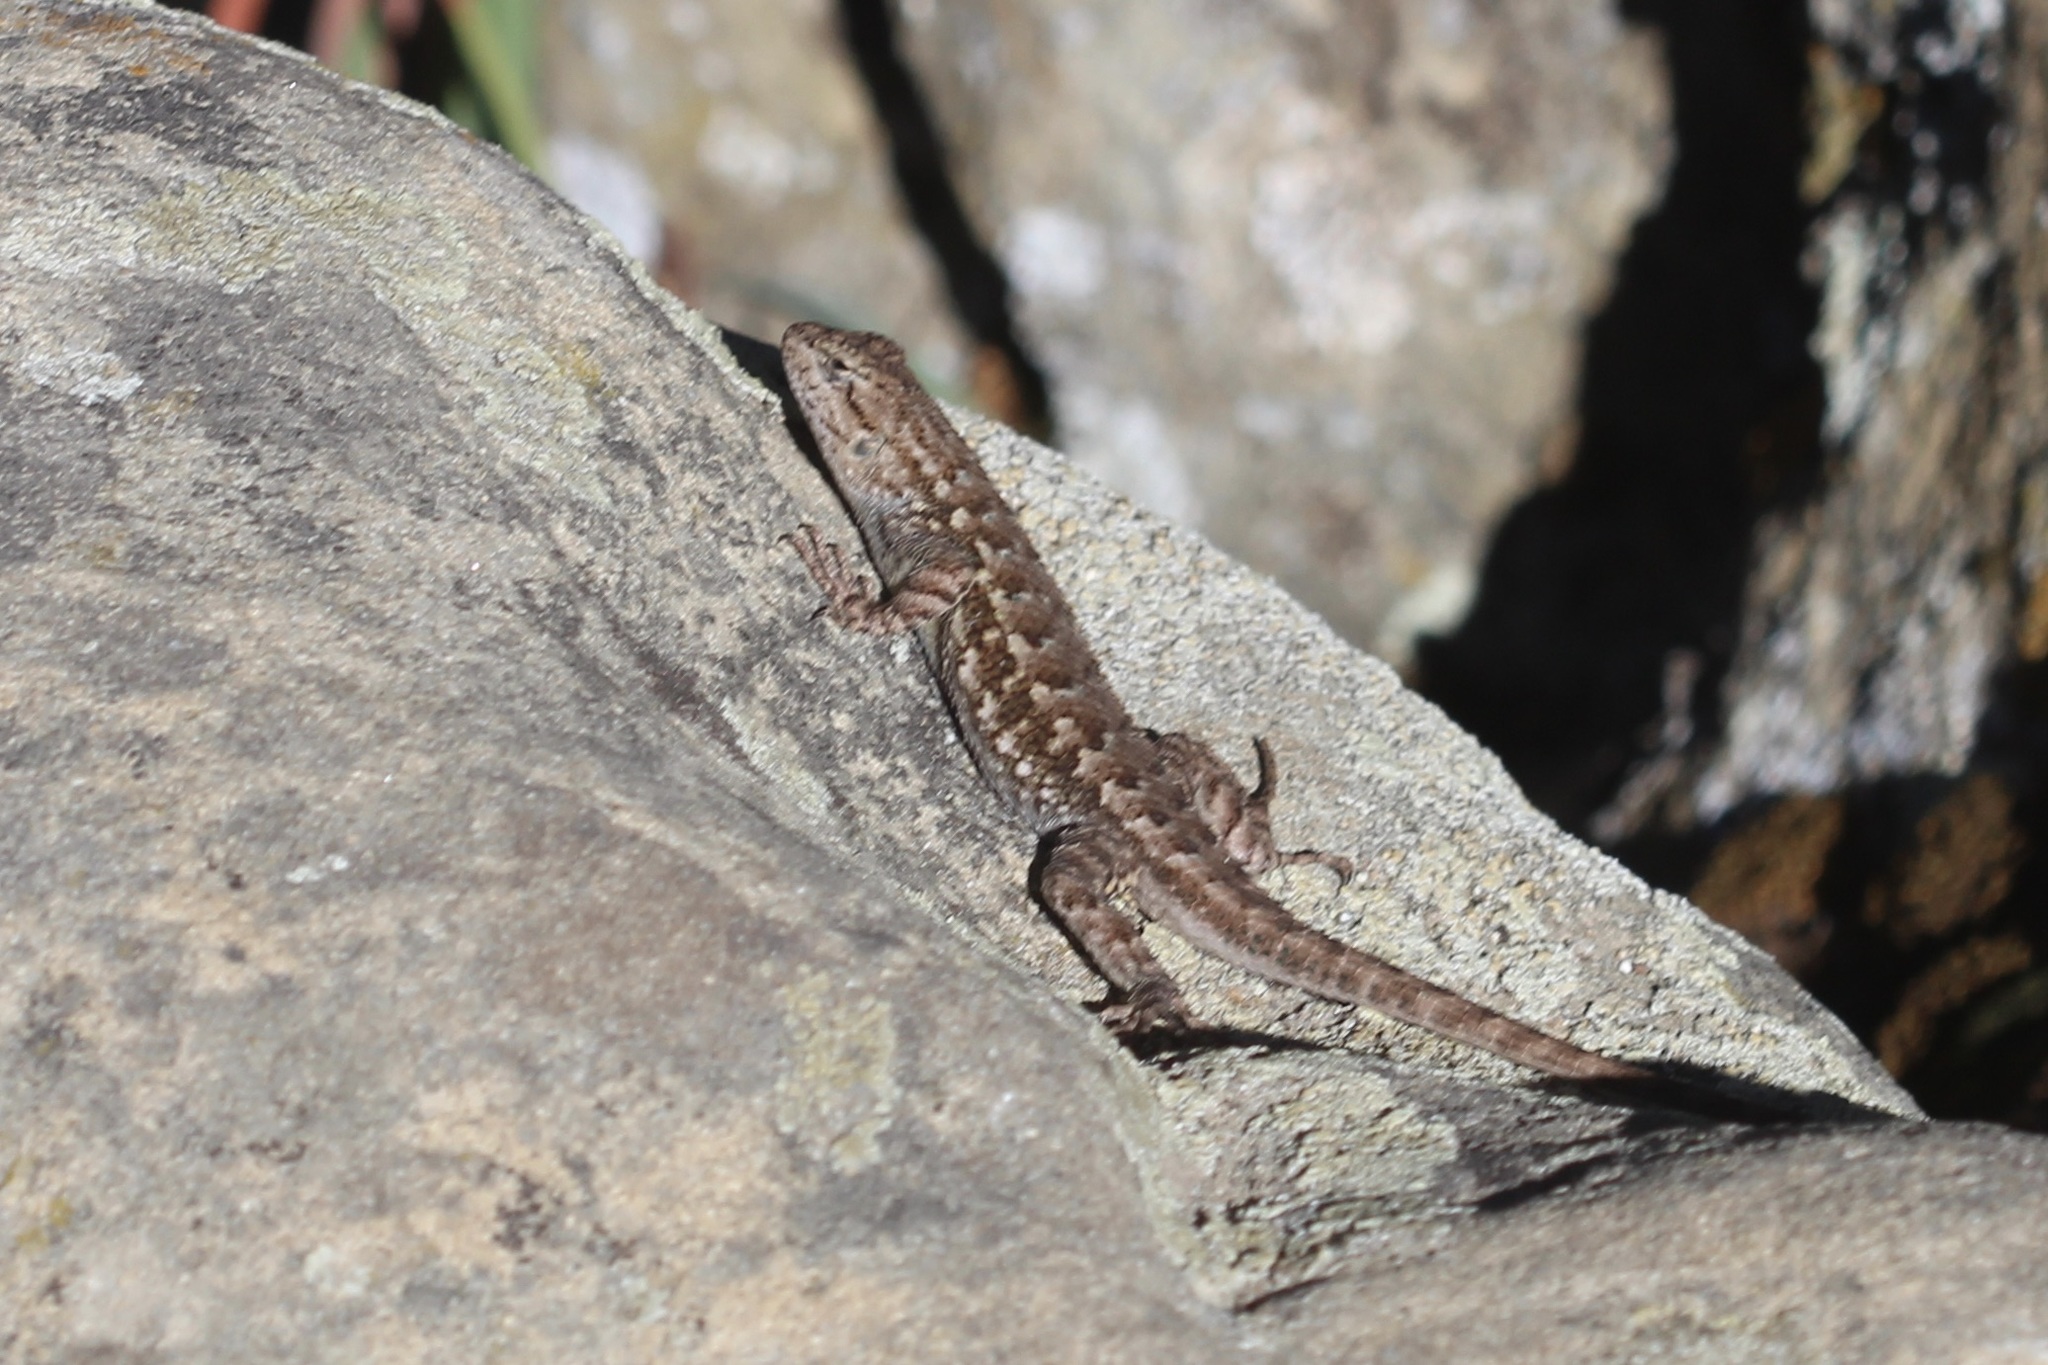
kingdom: Animalia
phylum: Chordata
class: Squamata
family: Phrynosomatidae
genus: Sceloporus
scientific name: Sceloporus occidentalis
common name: Western fence lizard
